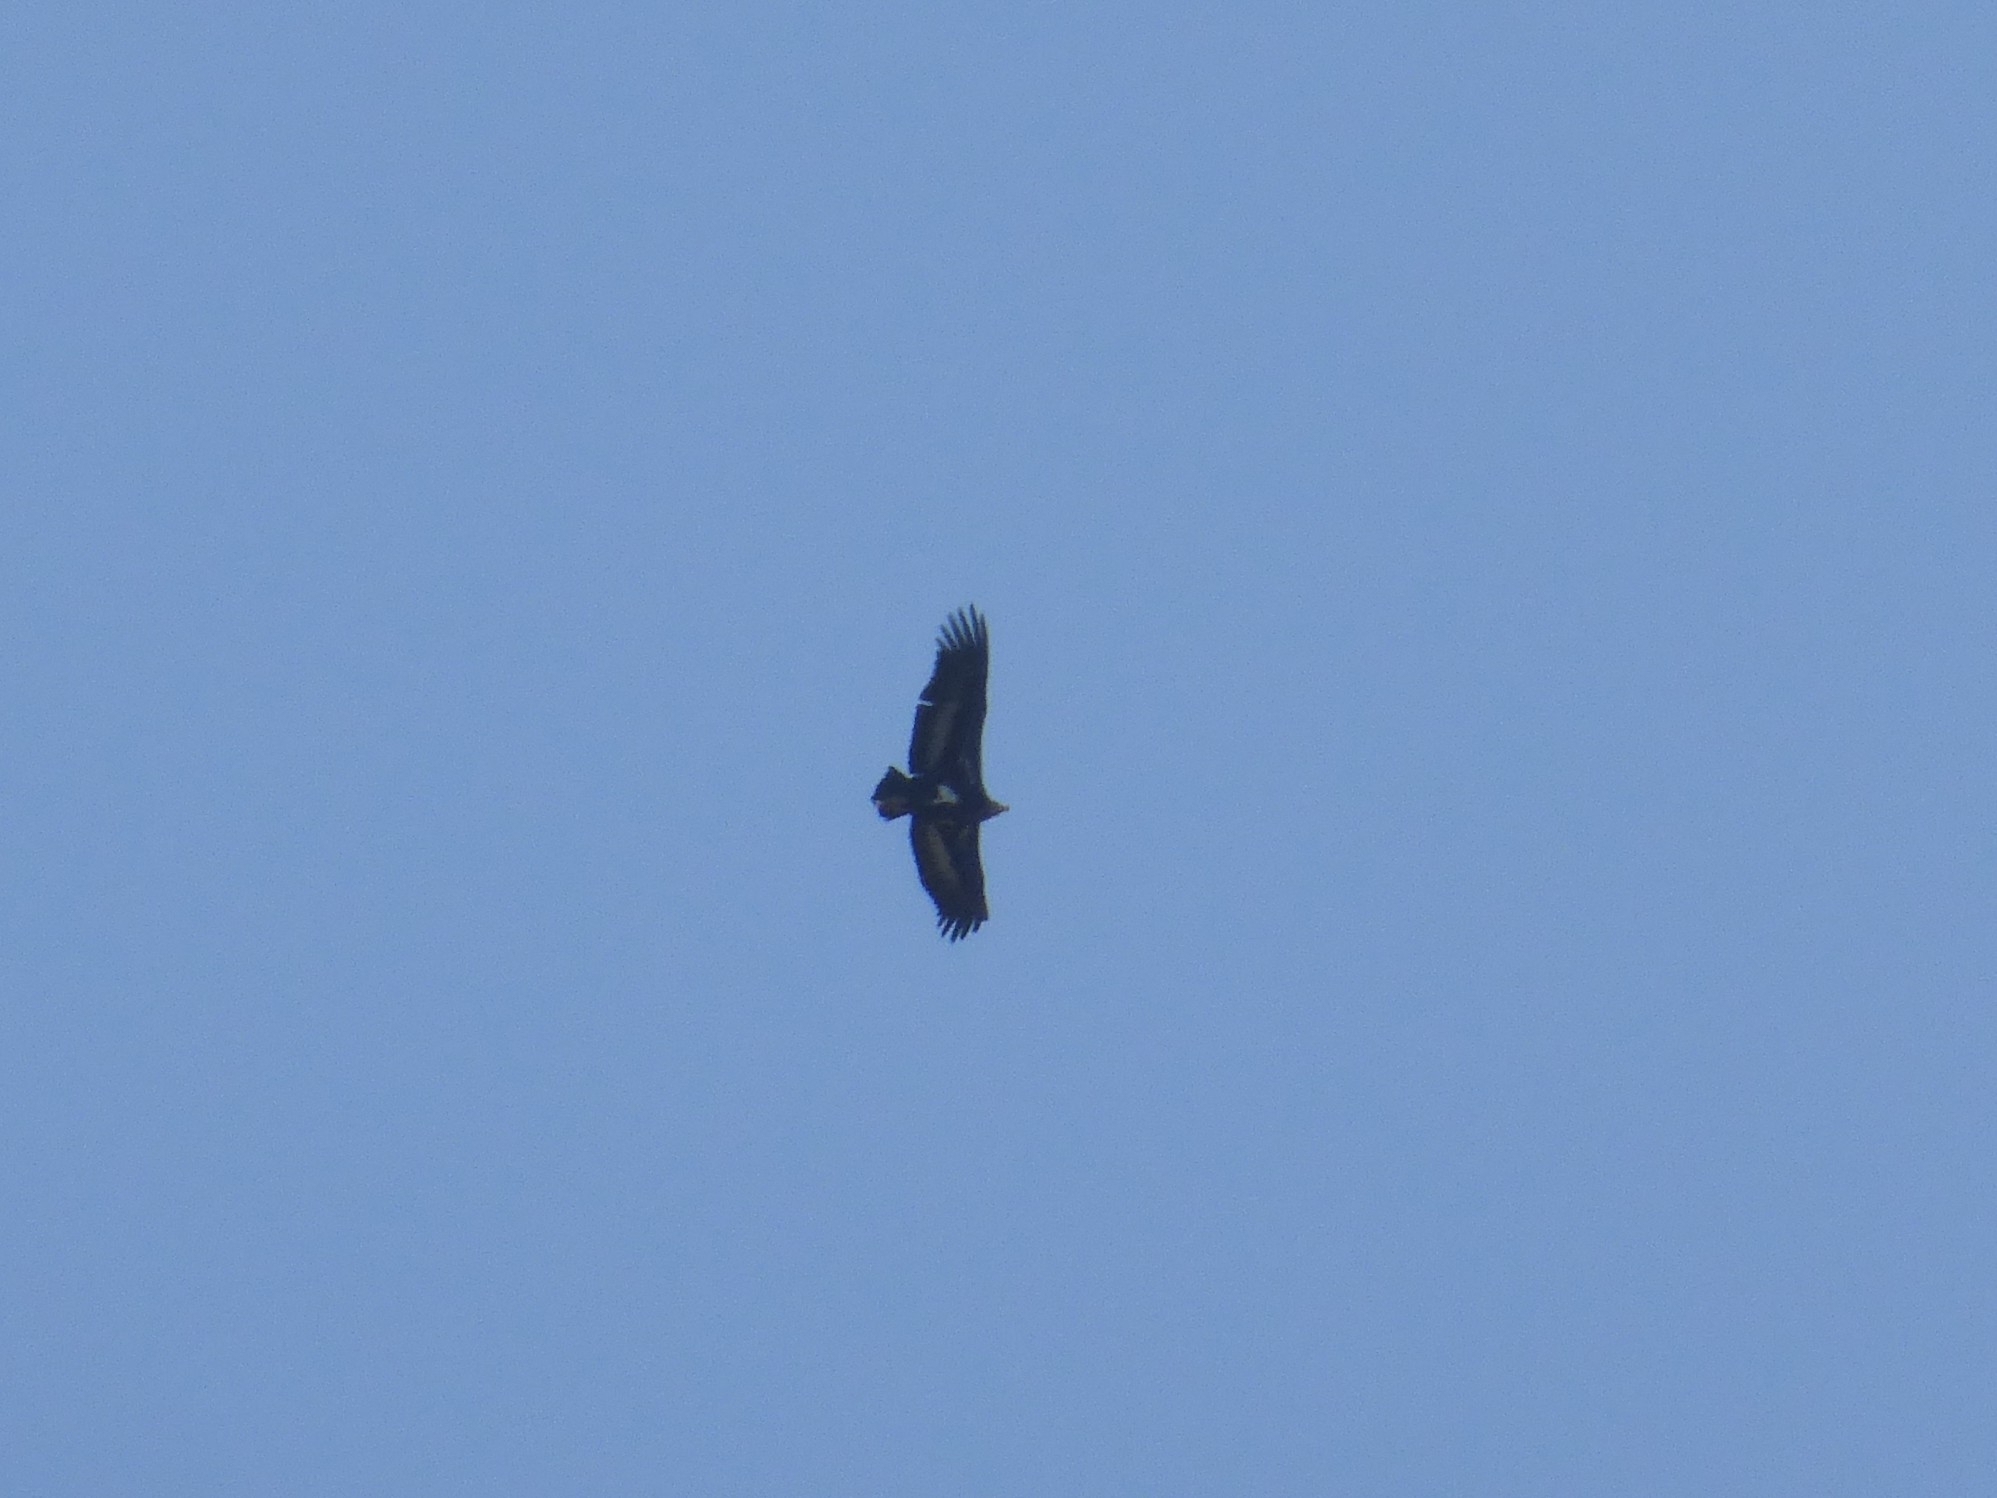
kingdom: Animalia
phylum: Chordata
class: Aves
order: Accipitriformes
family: Accipitridae
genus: Sarcogyps
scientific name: Sarcogyps calvus
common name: Red-headed vulture
